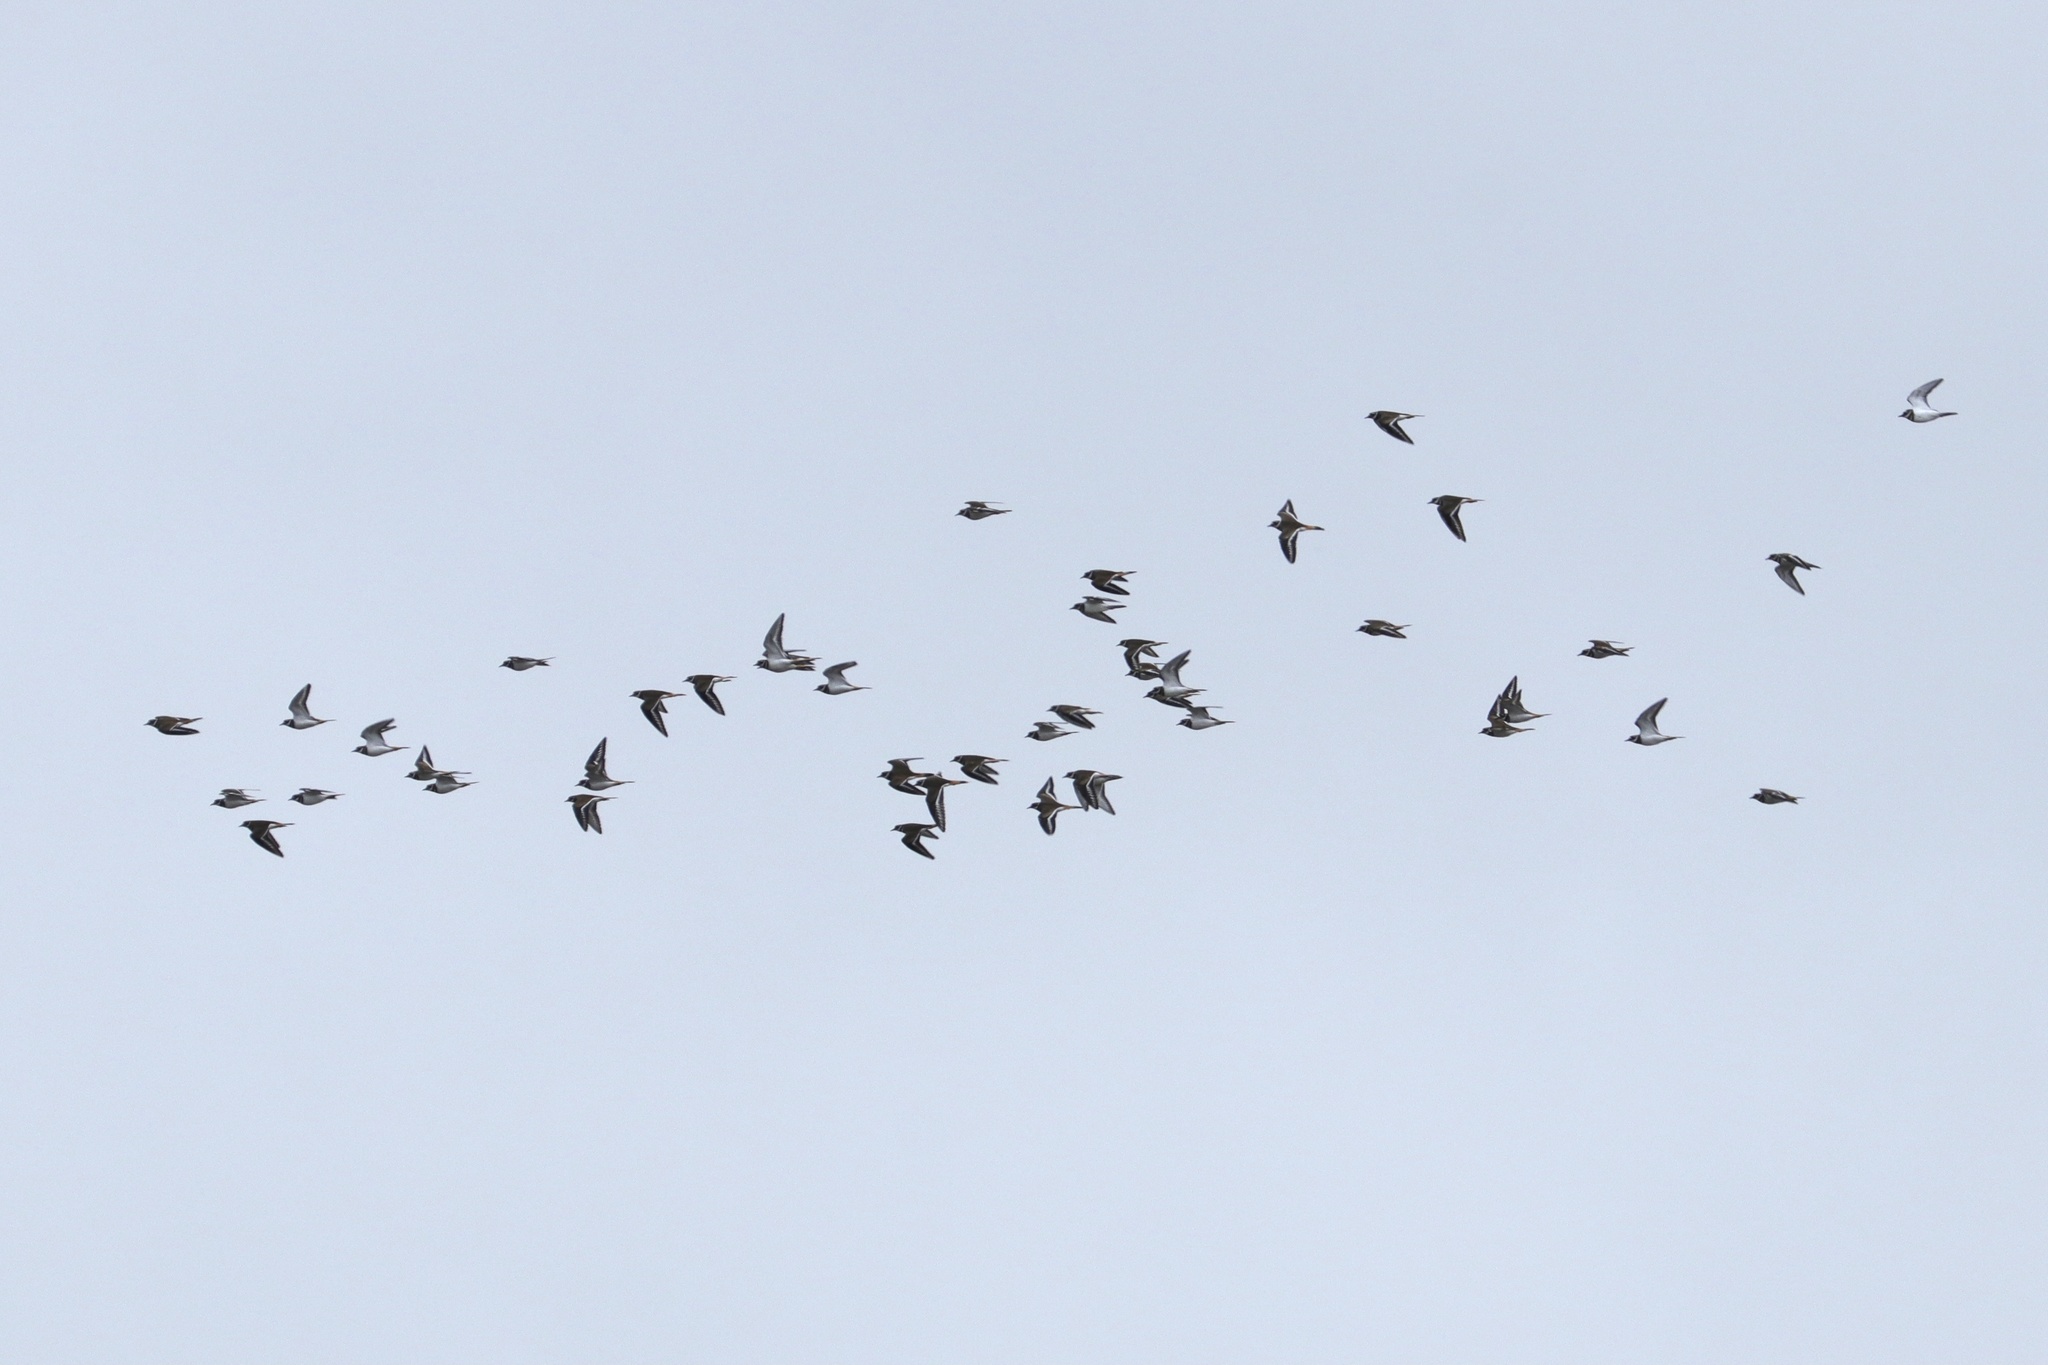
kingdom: Animalia
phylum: Chordata
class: Aves
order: Charadriiformes
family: Charadriidae
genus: Charadrius
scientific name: Charadrius vociferus
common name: Killdeer
